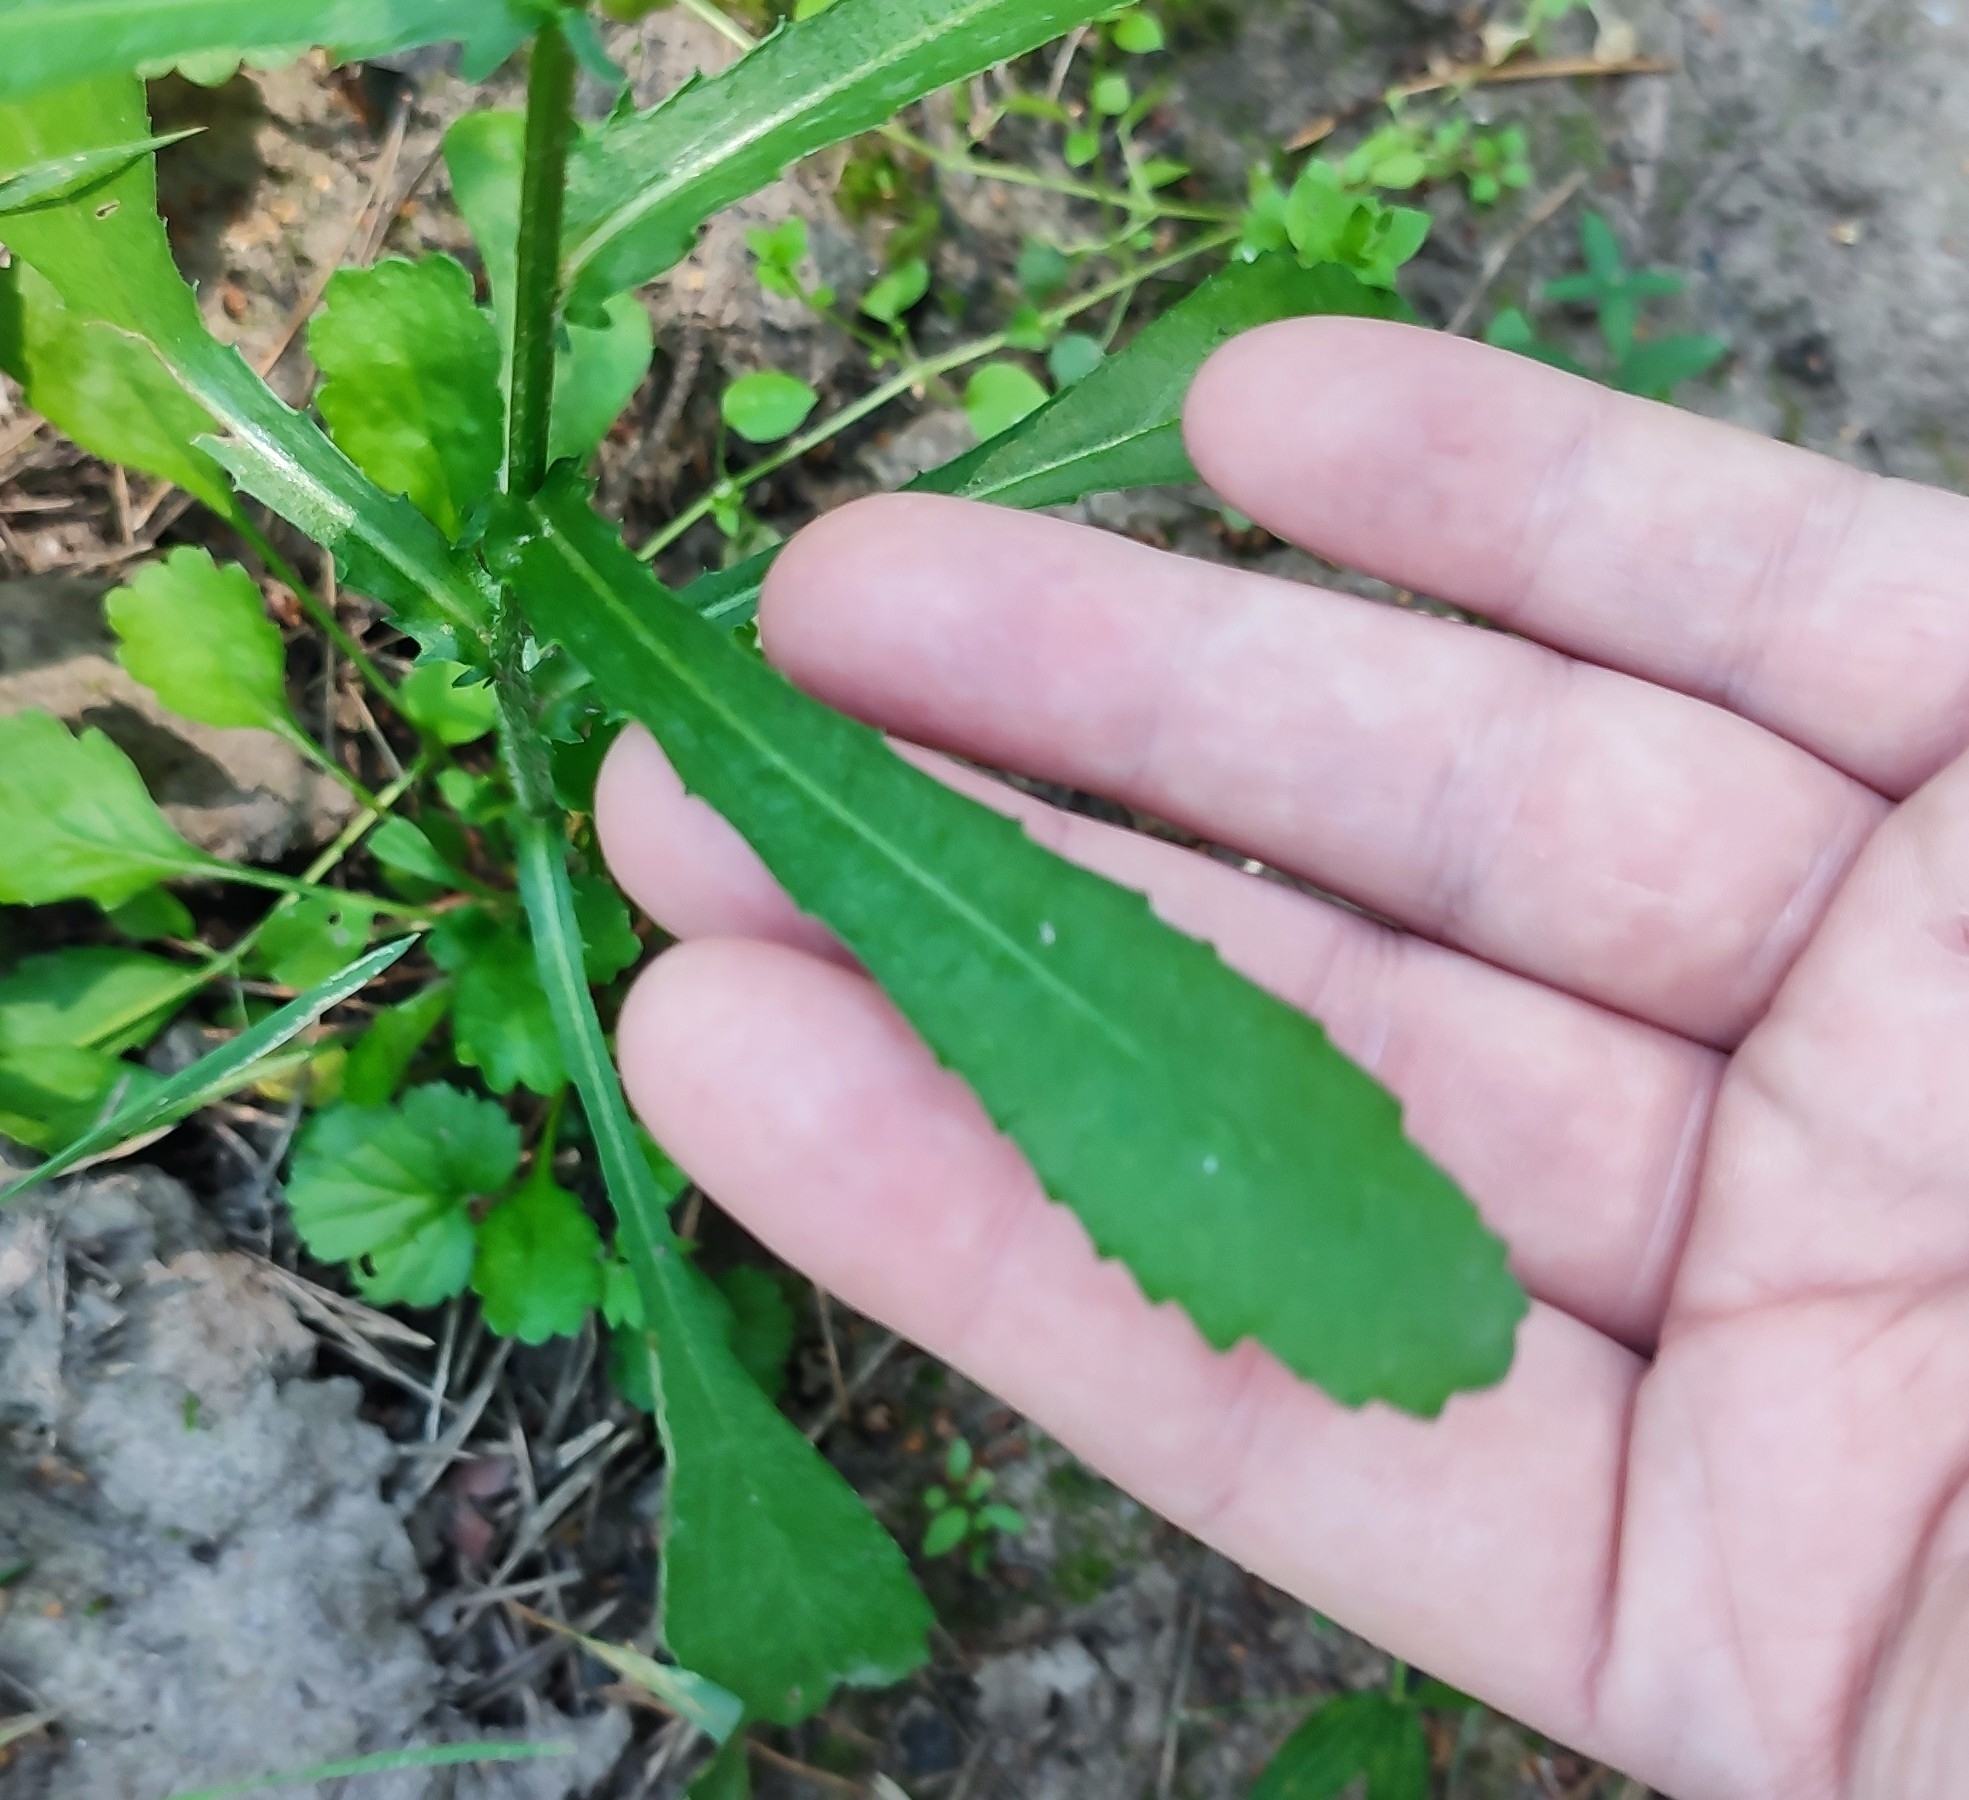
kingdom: Plantae
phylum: Tracheophyta
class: Magnoliopsida
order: Asterales
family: Asteraceae
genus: Leucanthemum
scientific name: Leucanthemum ircutianum
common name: Daisy
